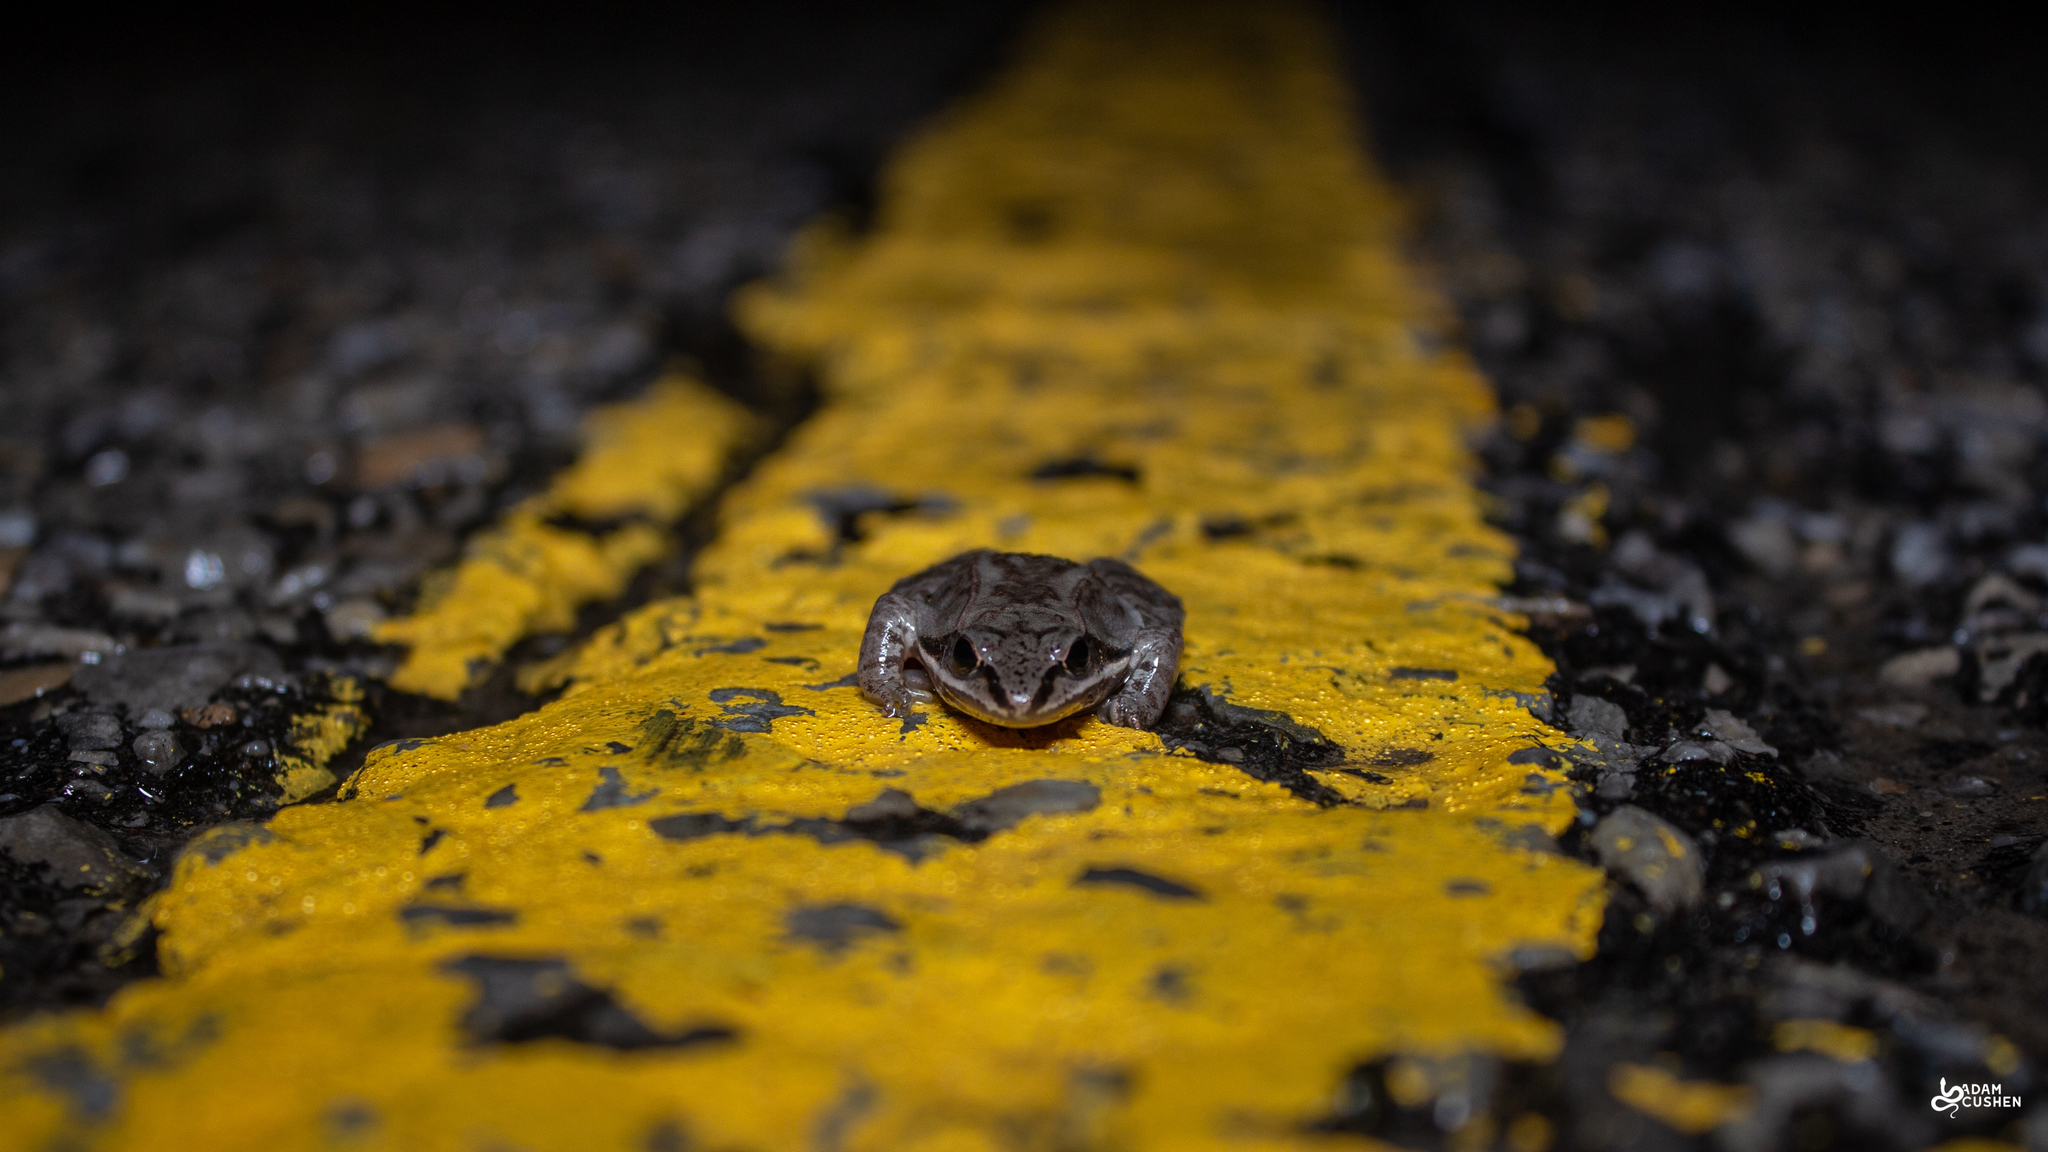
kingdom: Animalia
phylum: Chordata
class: Amphibia
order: Anura
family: Ranidae
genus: Lithobates
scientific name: Lithobates sylvaticus
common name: Wood frog
